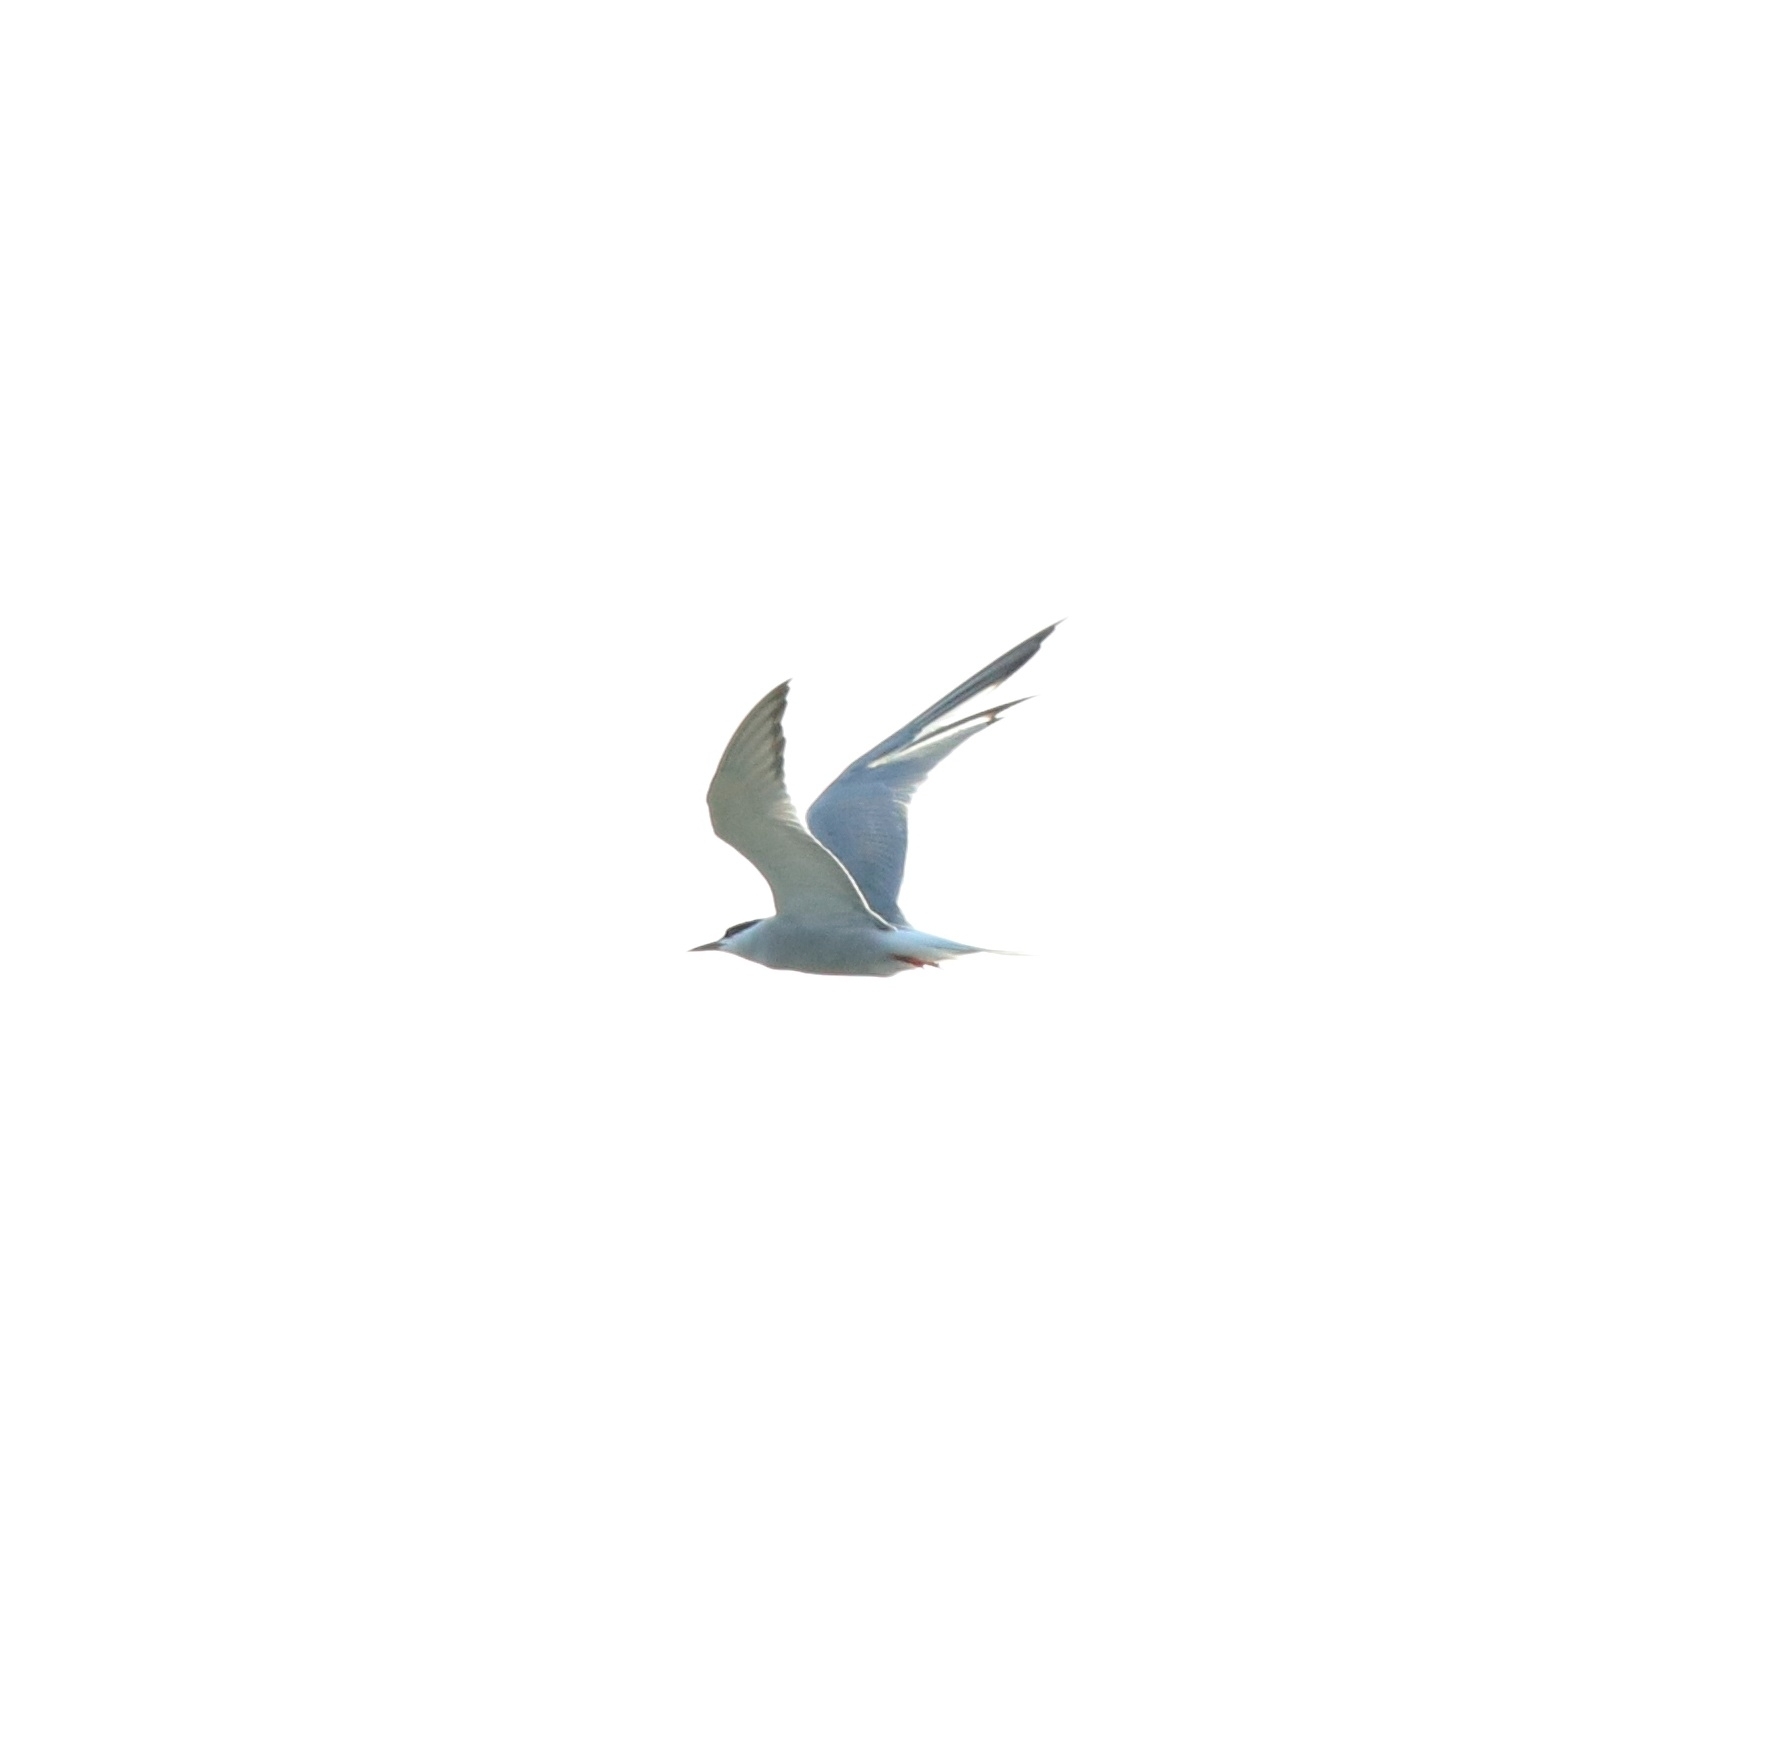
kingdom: Animalia
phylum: Chordata
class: Aves
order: Charadriiformes
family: Laridae
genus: Sterna
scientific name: Sterna hirundo
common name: Common tern
